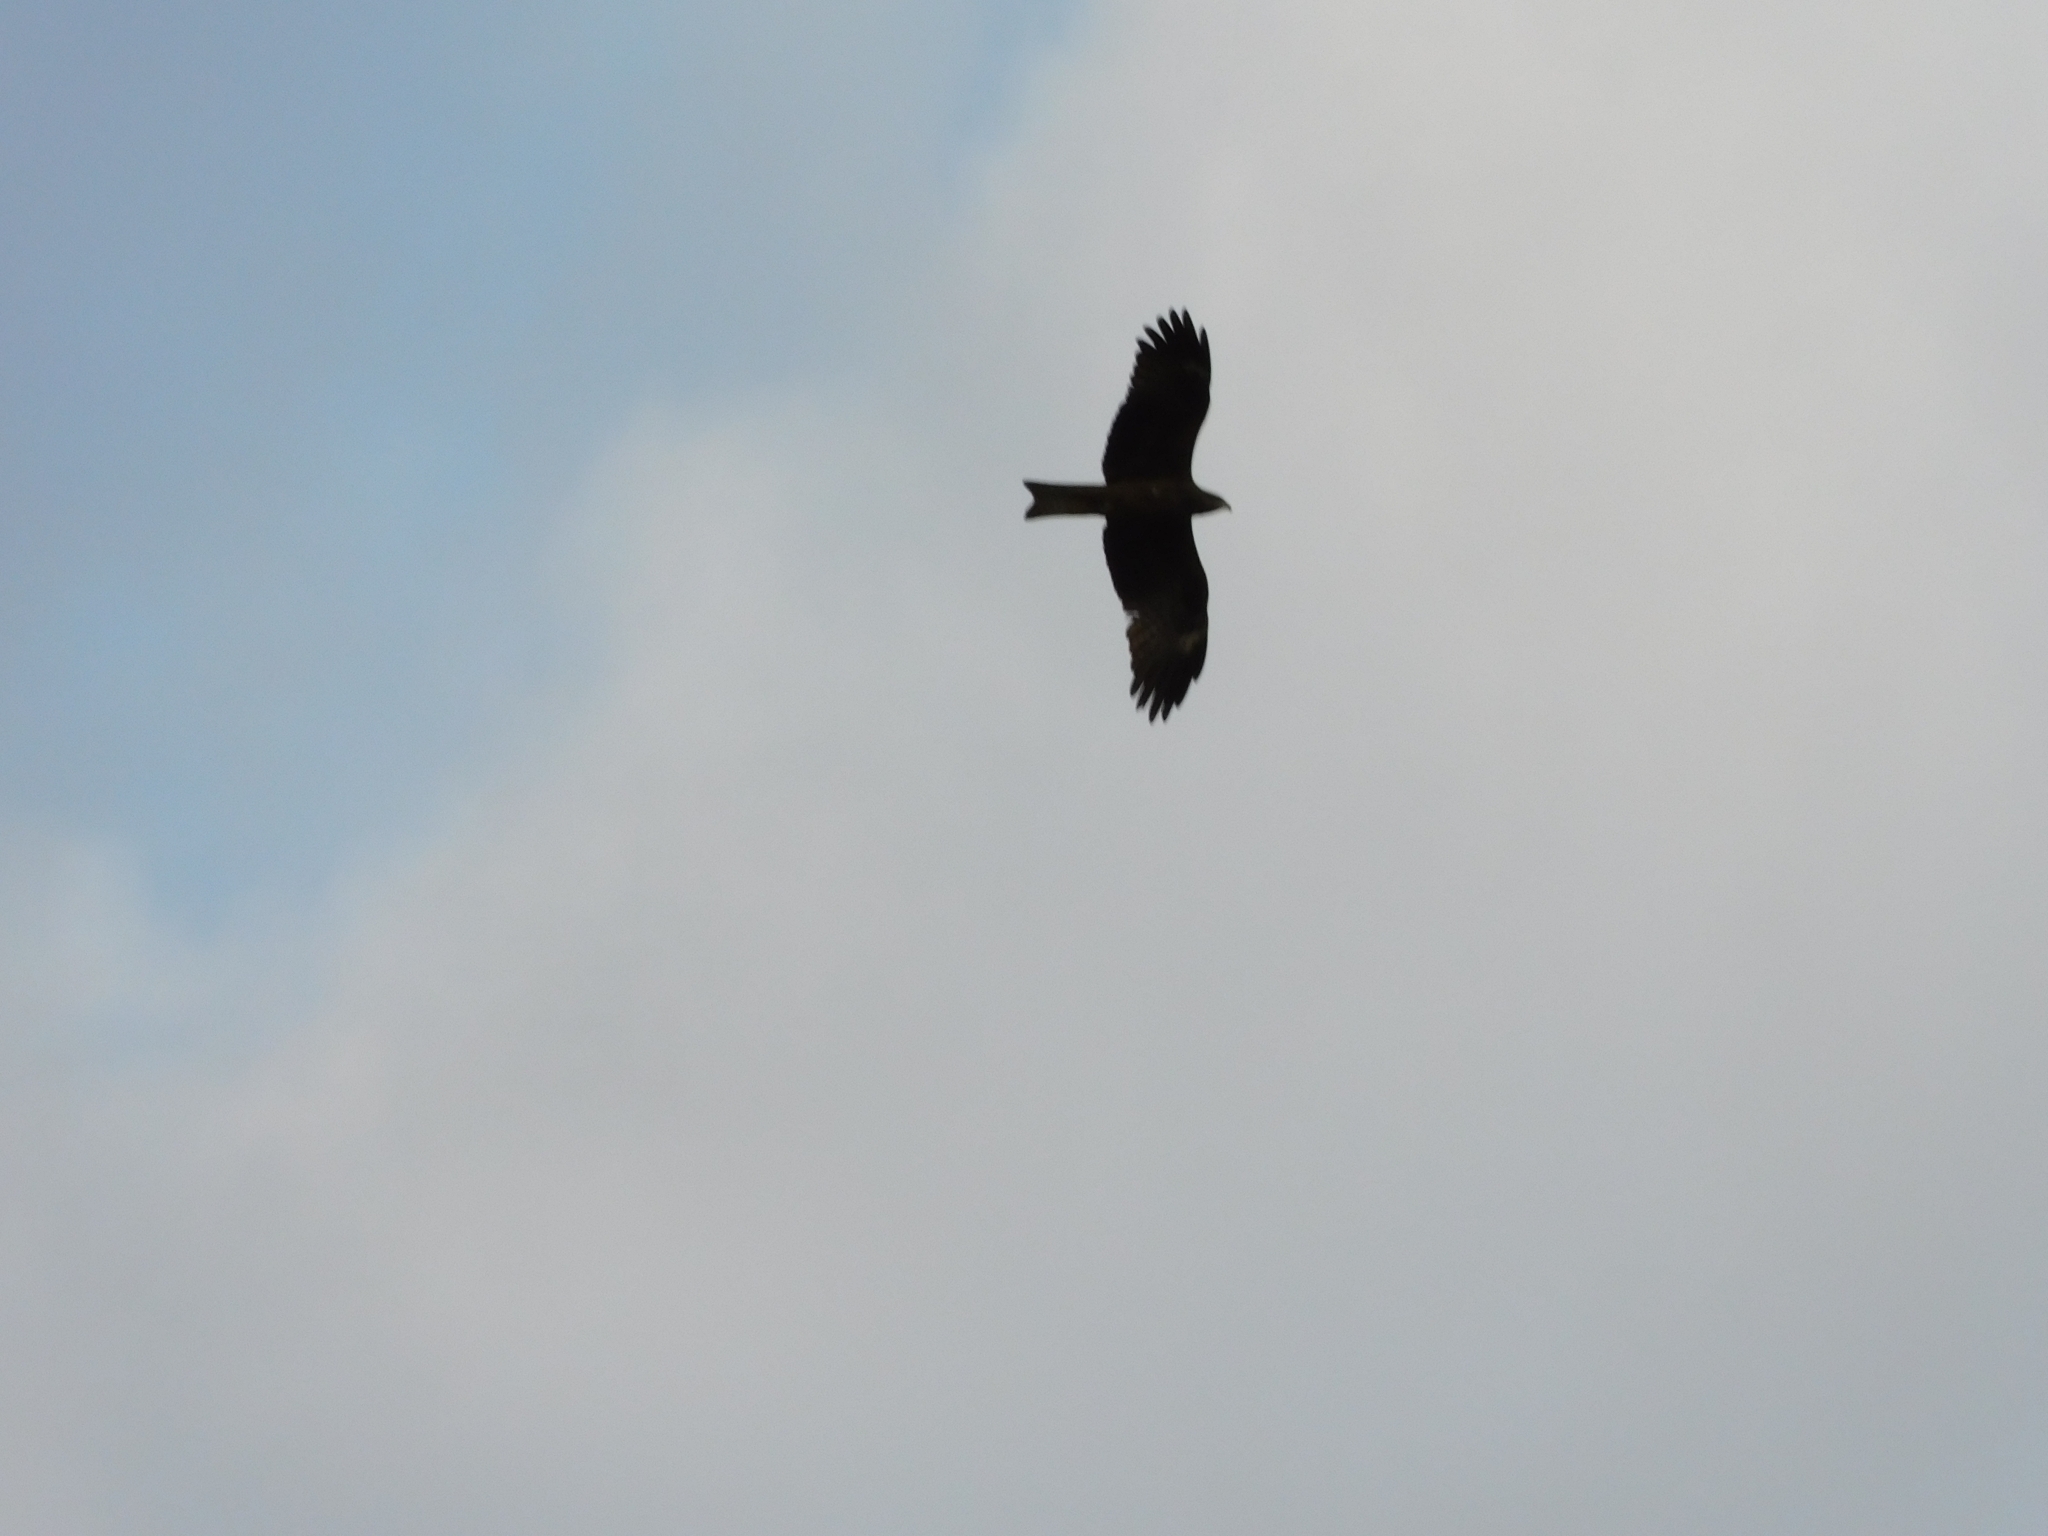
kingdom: Animalia
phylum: Chordata
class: Aves
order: Accipitriformes
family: Accipitridae
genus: Milvus
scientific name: Milvus migrans
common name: Black kite
